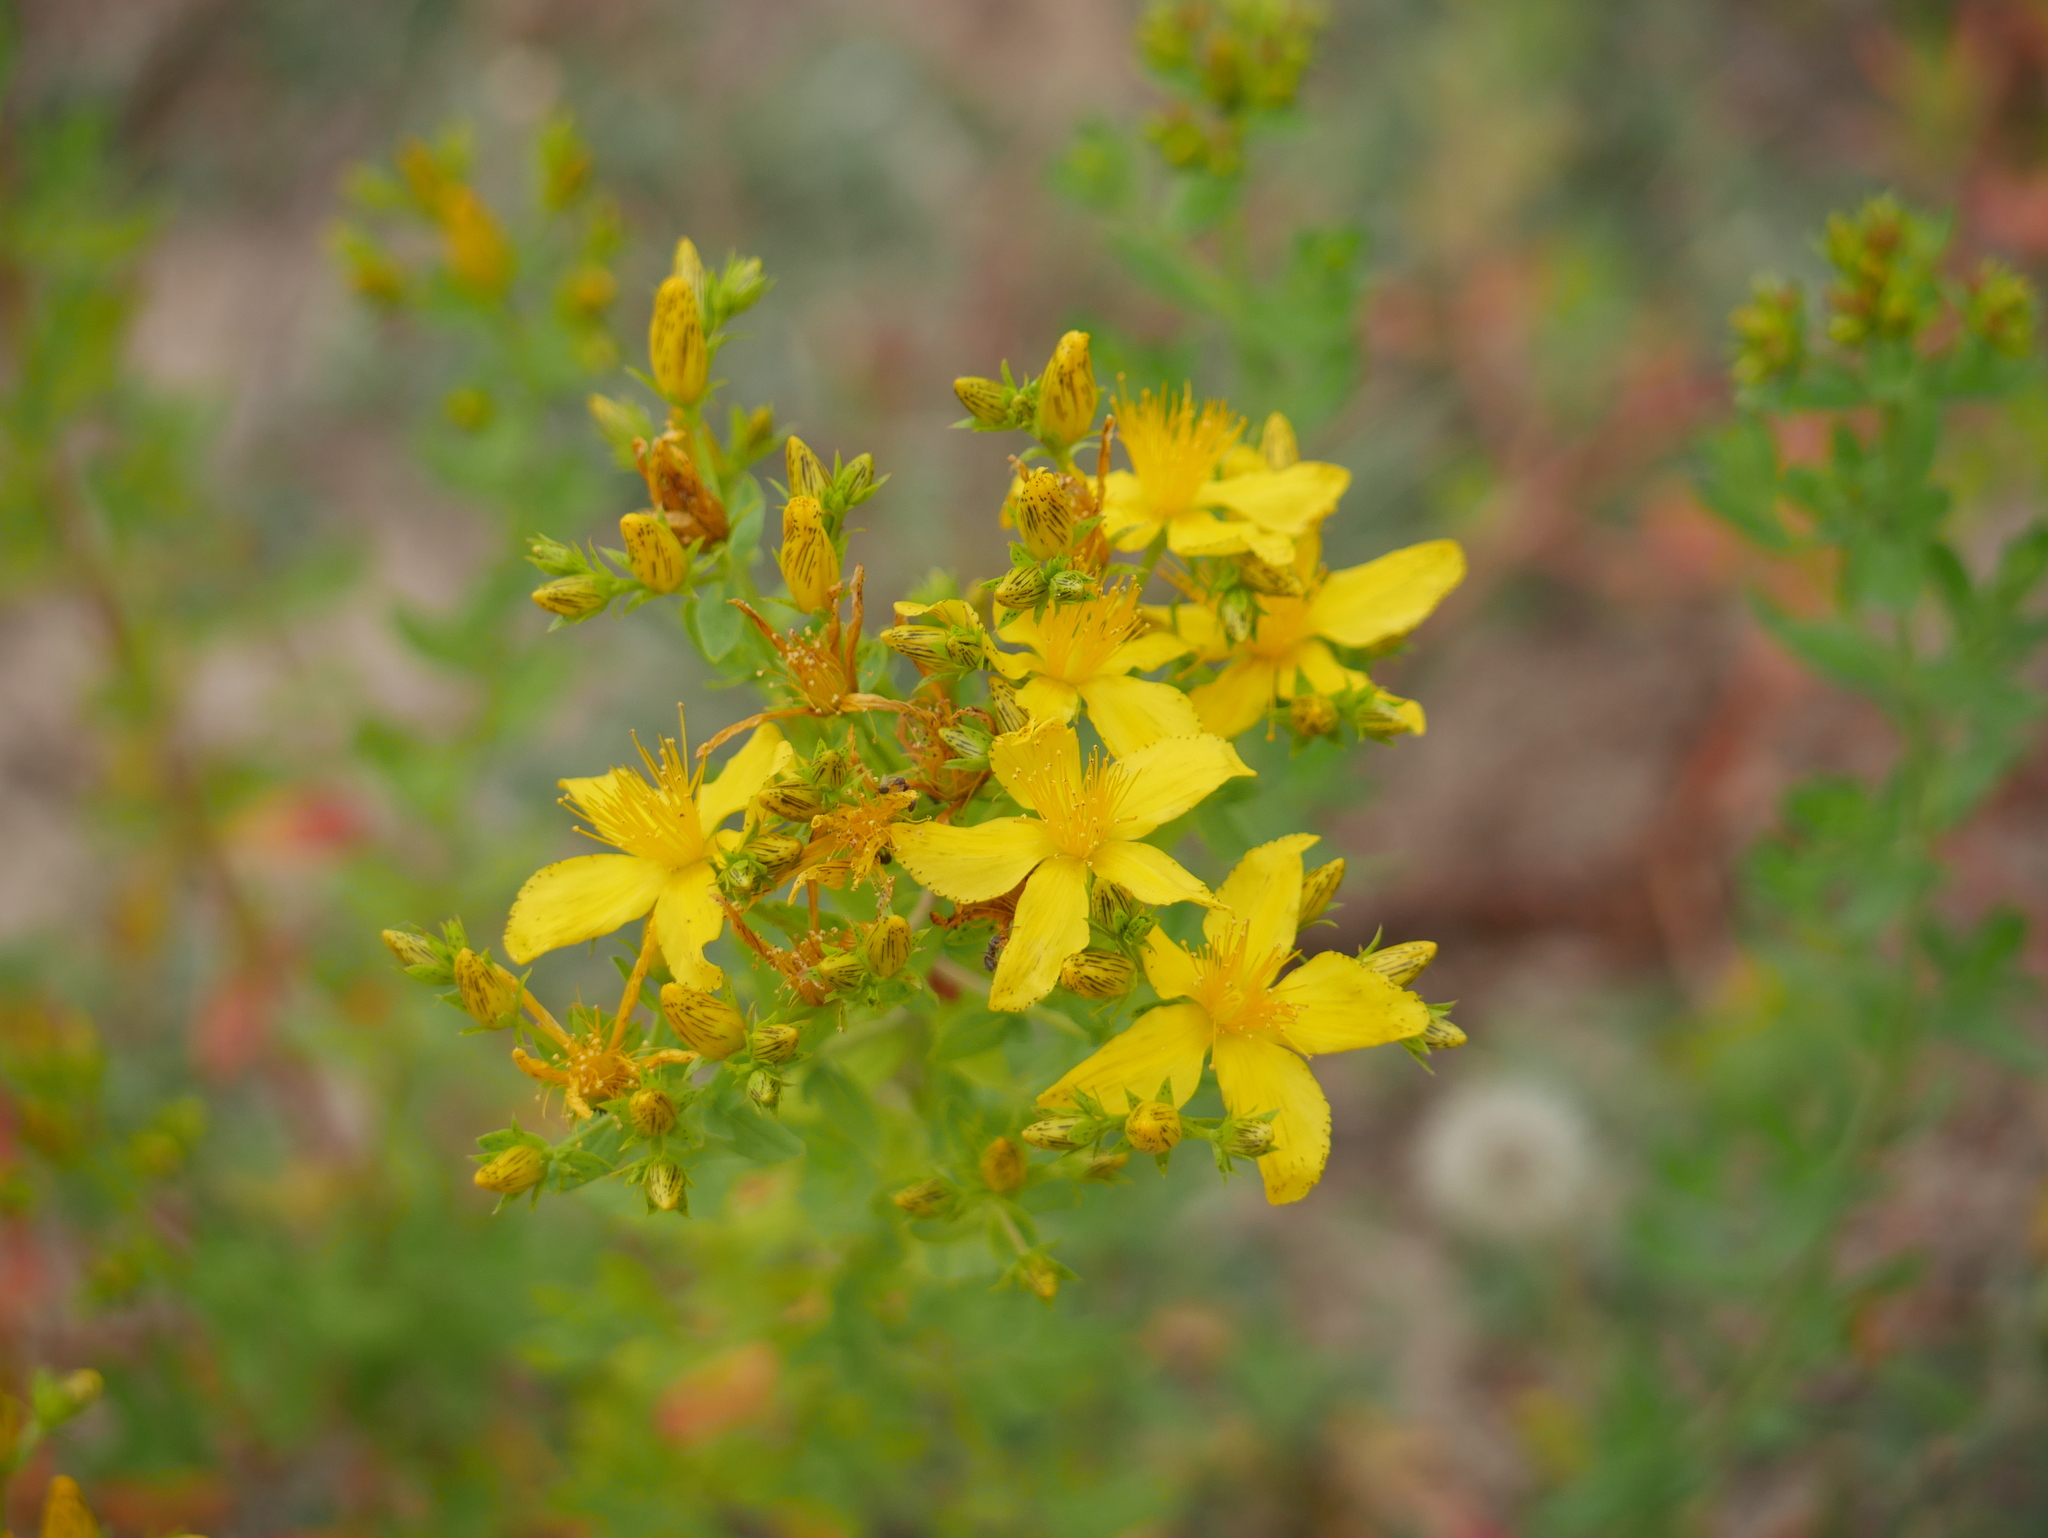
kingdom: Plantae
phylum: Tracheophyta
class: Magnoliopsida
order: Malpighiales
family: Hypericaceae
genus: Hypericum
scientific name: Hypericum perforatum
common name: Common st. johnswort
